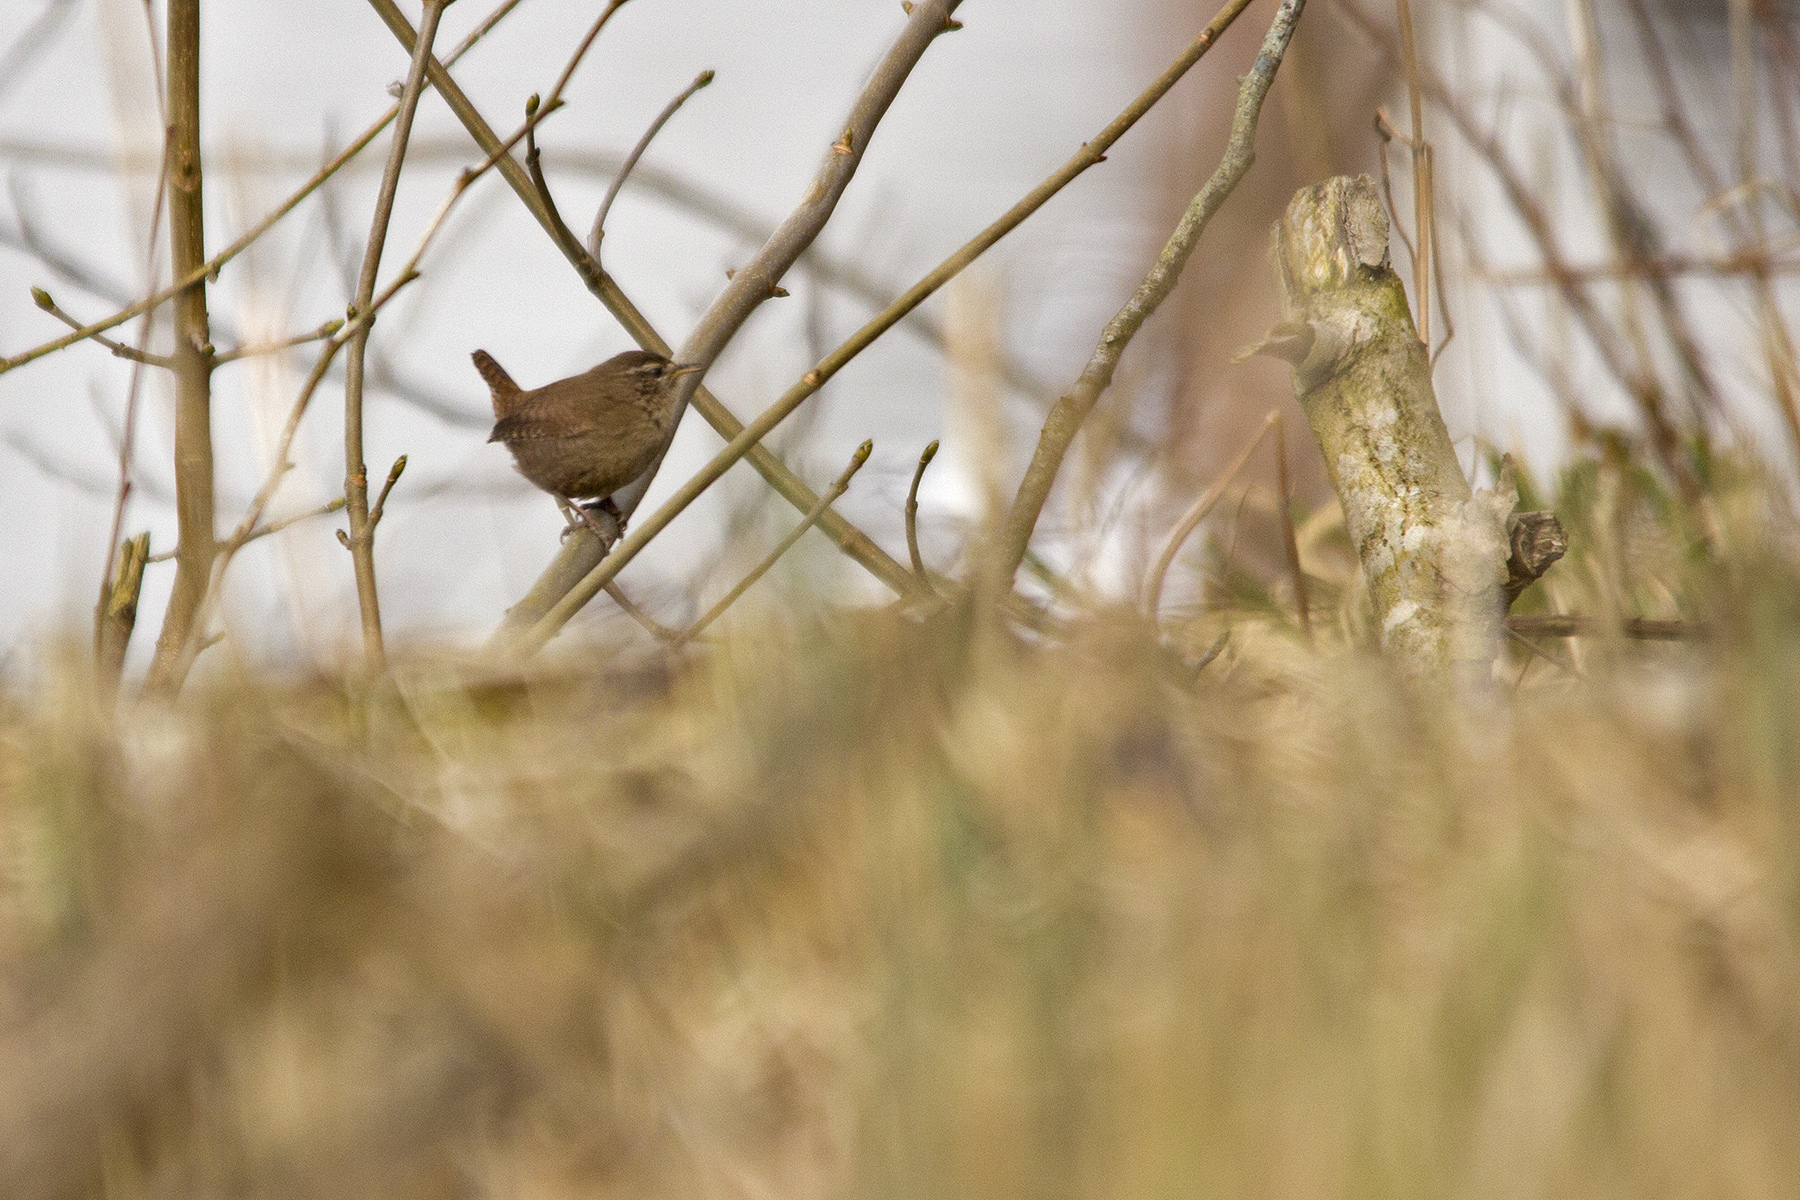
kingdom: Animalia
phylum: Chordata
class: Aves
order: Passeriformes
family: Troglodytidae
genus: Troglodytes
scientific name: Troglodytes troglodytes
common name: Eurasian wren
